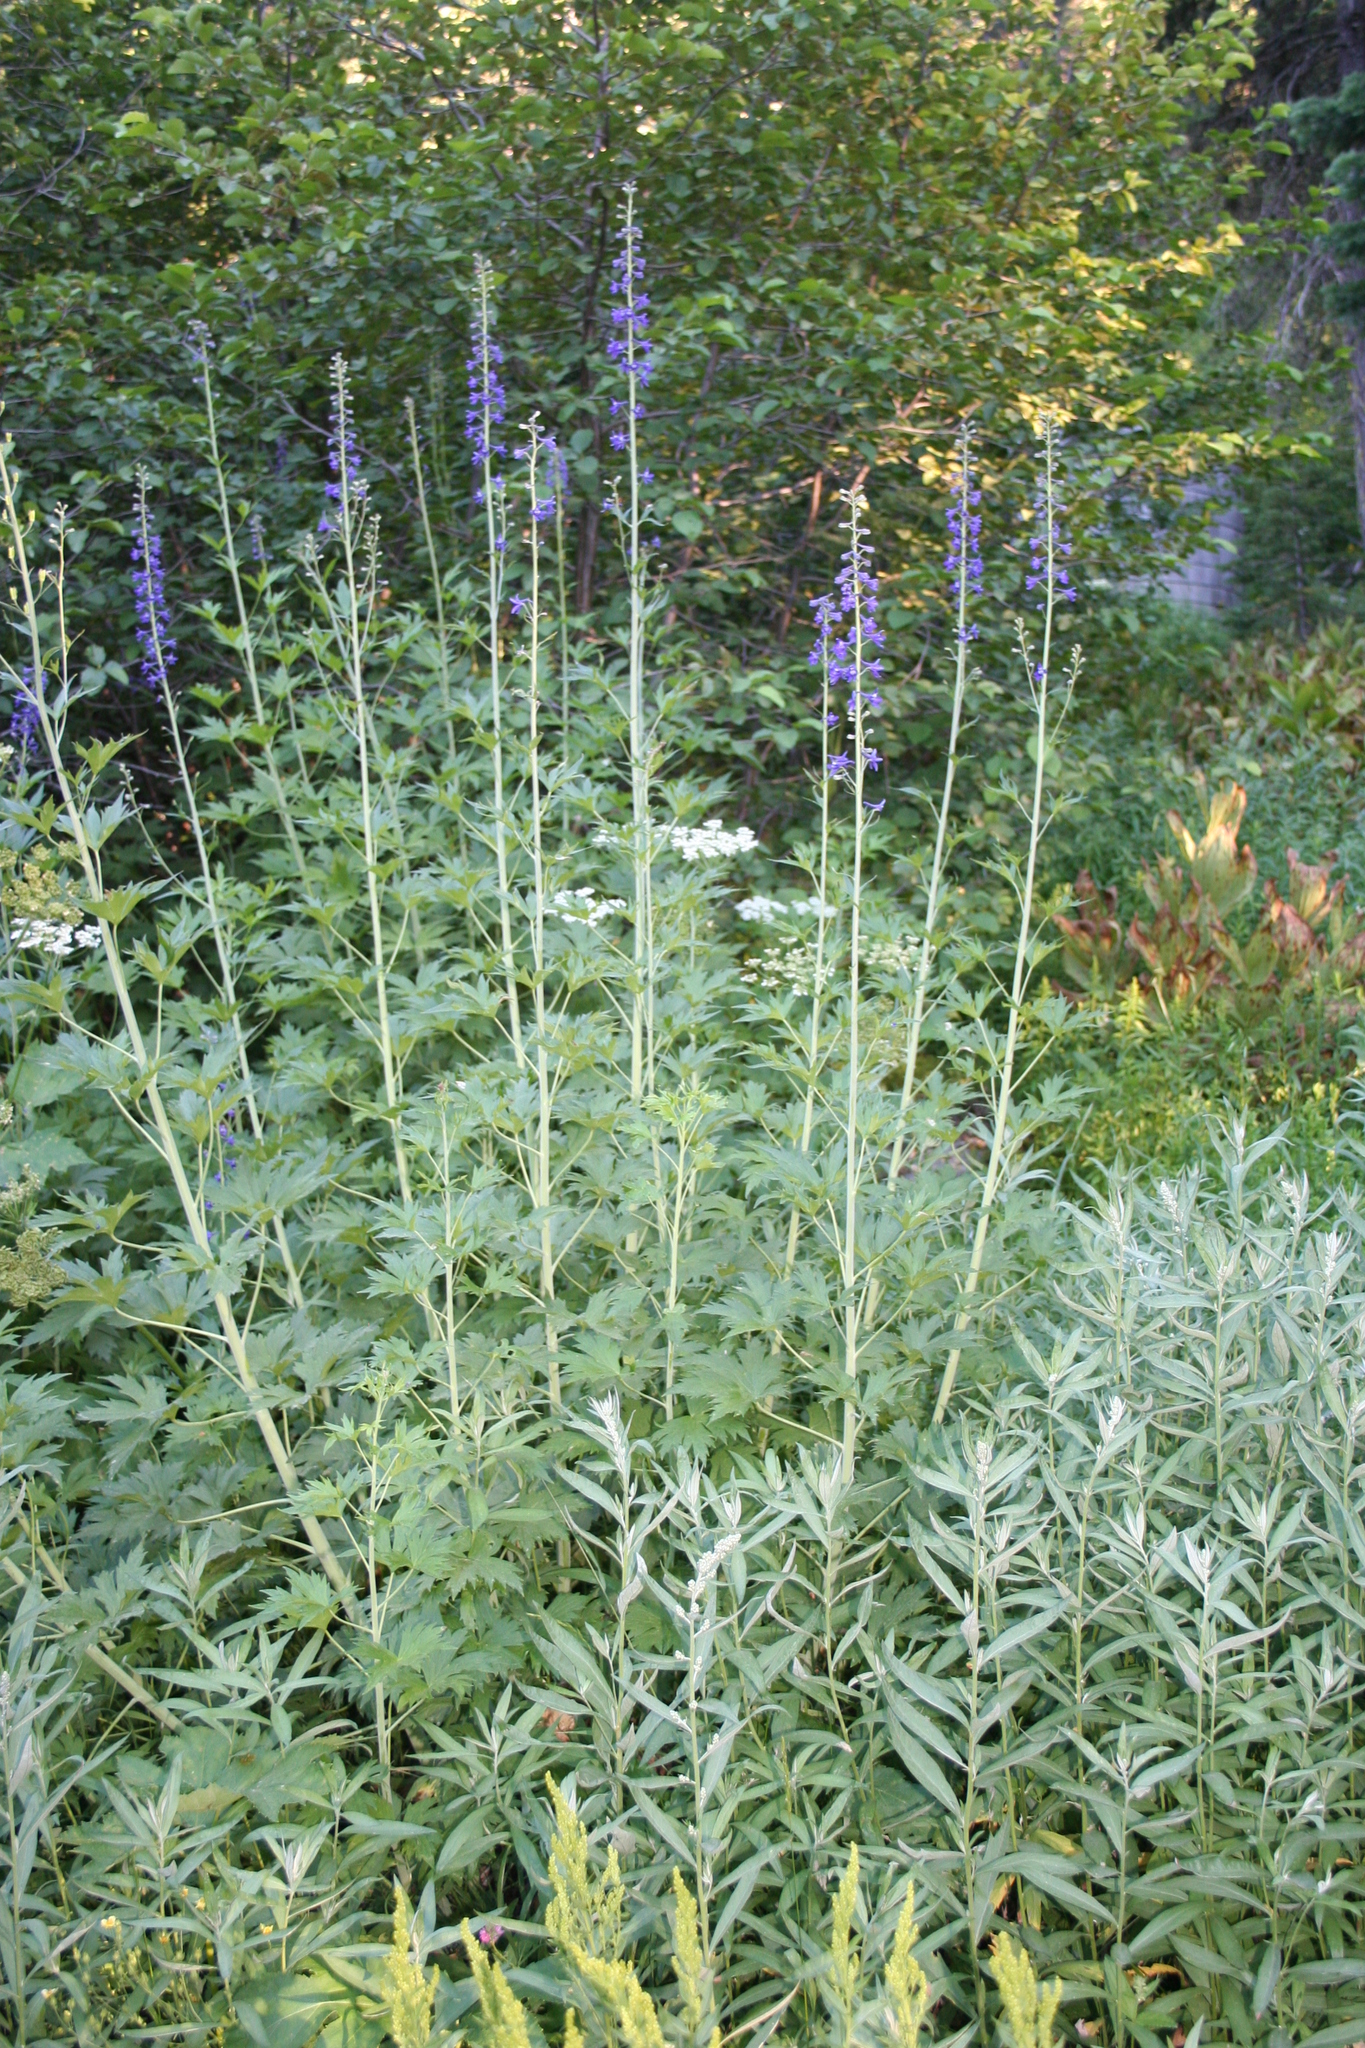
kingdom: Plantae
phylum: Tracheophyta
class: Magnoliopsida
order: Ranunculales
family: Ranunculaceae
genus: Delphinium
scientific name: Delphinium glaucum
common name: Brown's larkspur
